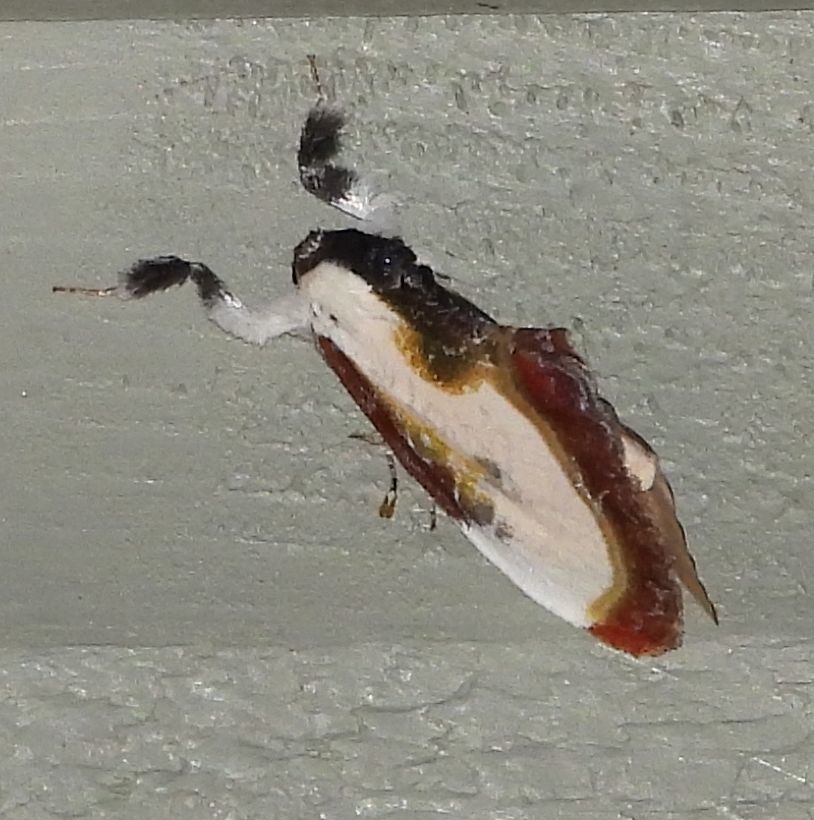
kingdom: Animalia
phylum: Arthropoda
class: Insecta
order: Lepidoptera
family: Noctuidae
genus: Eudryas
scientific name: Eudryas grata
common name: Beautiful wood-nymph
